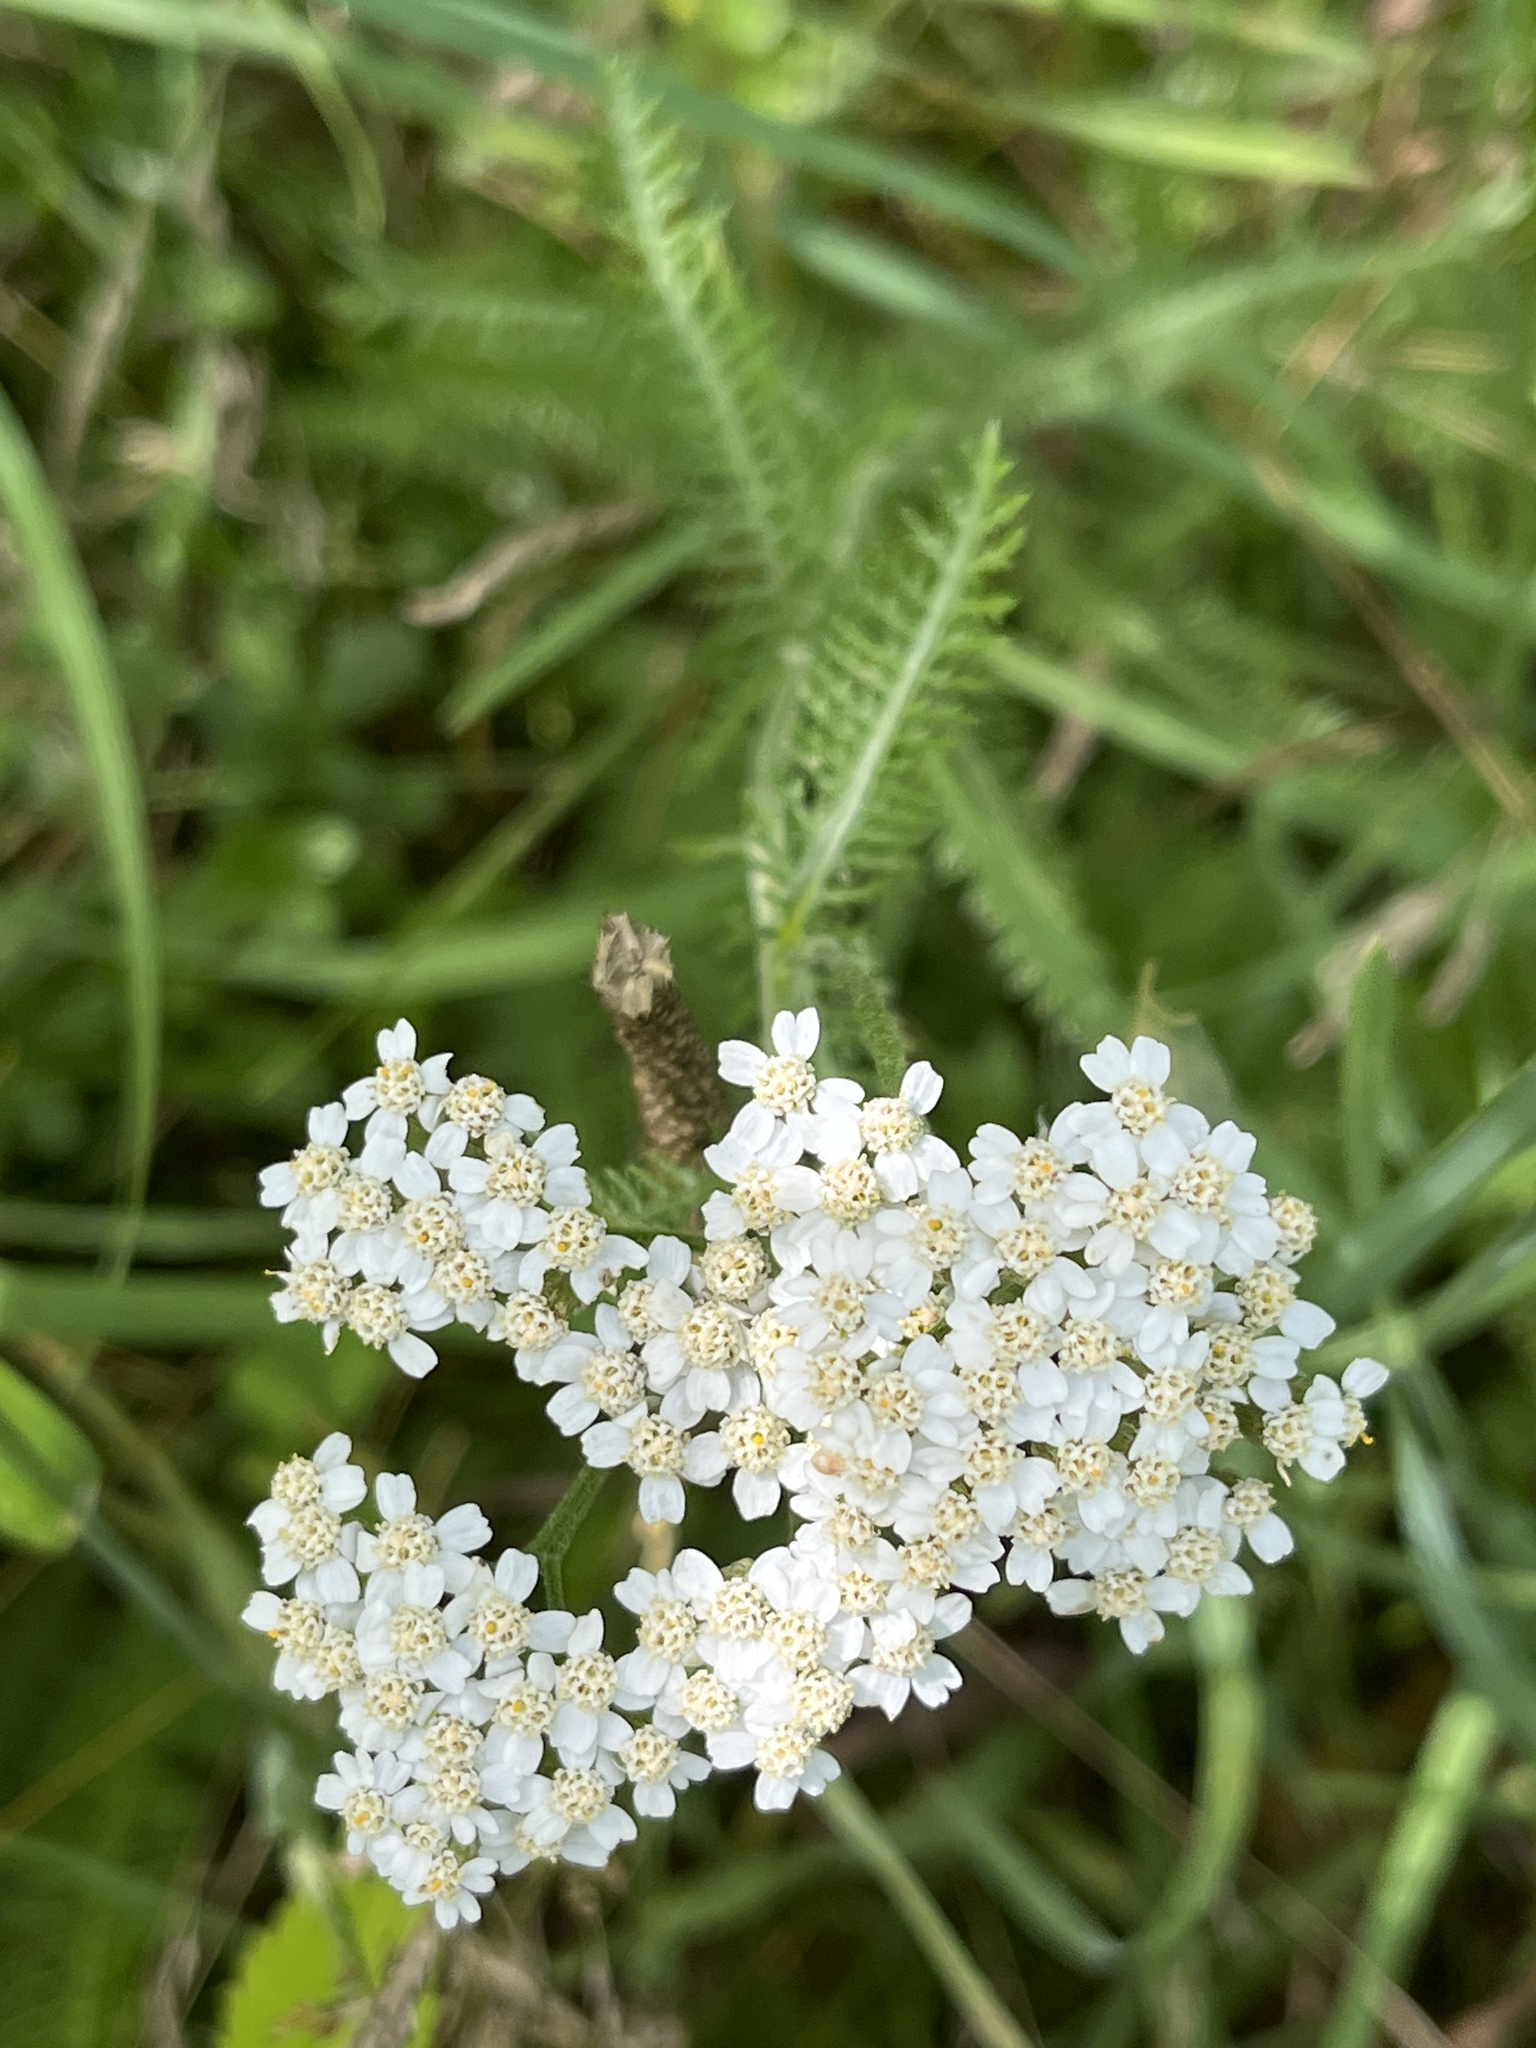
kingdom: Plantae
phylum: Tracheophyta
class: Magnoliopsida
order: Asterales
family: Asteraceae
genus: Achillea
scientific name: Achillea millefolium
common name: Yarrow
